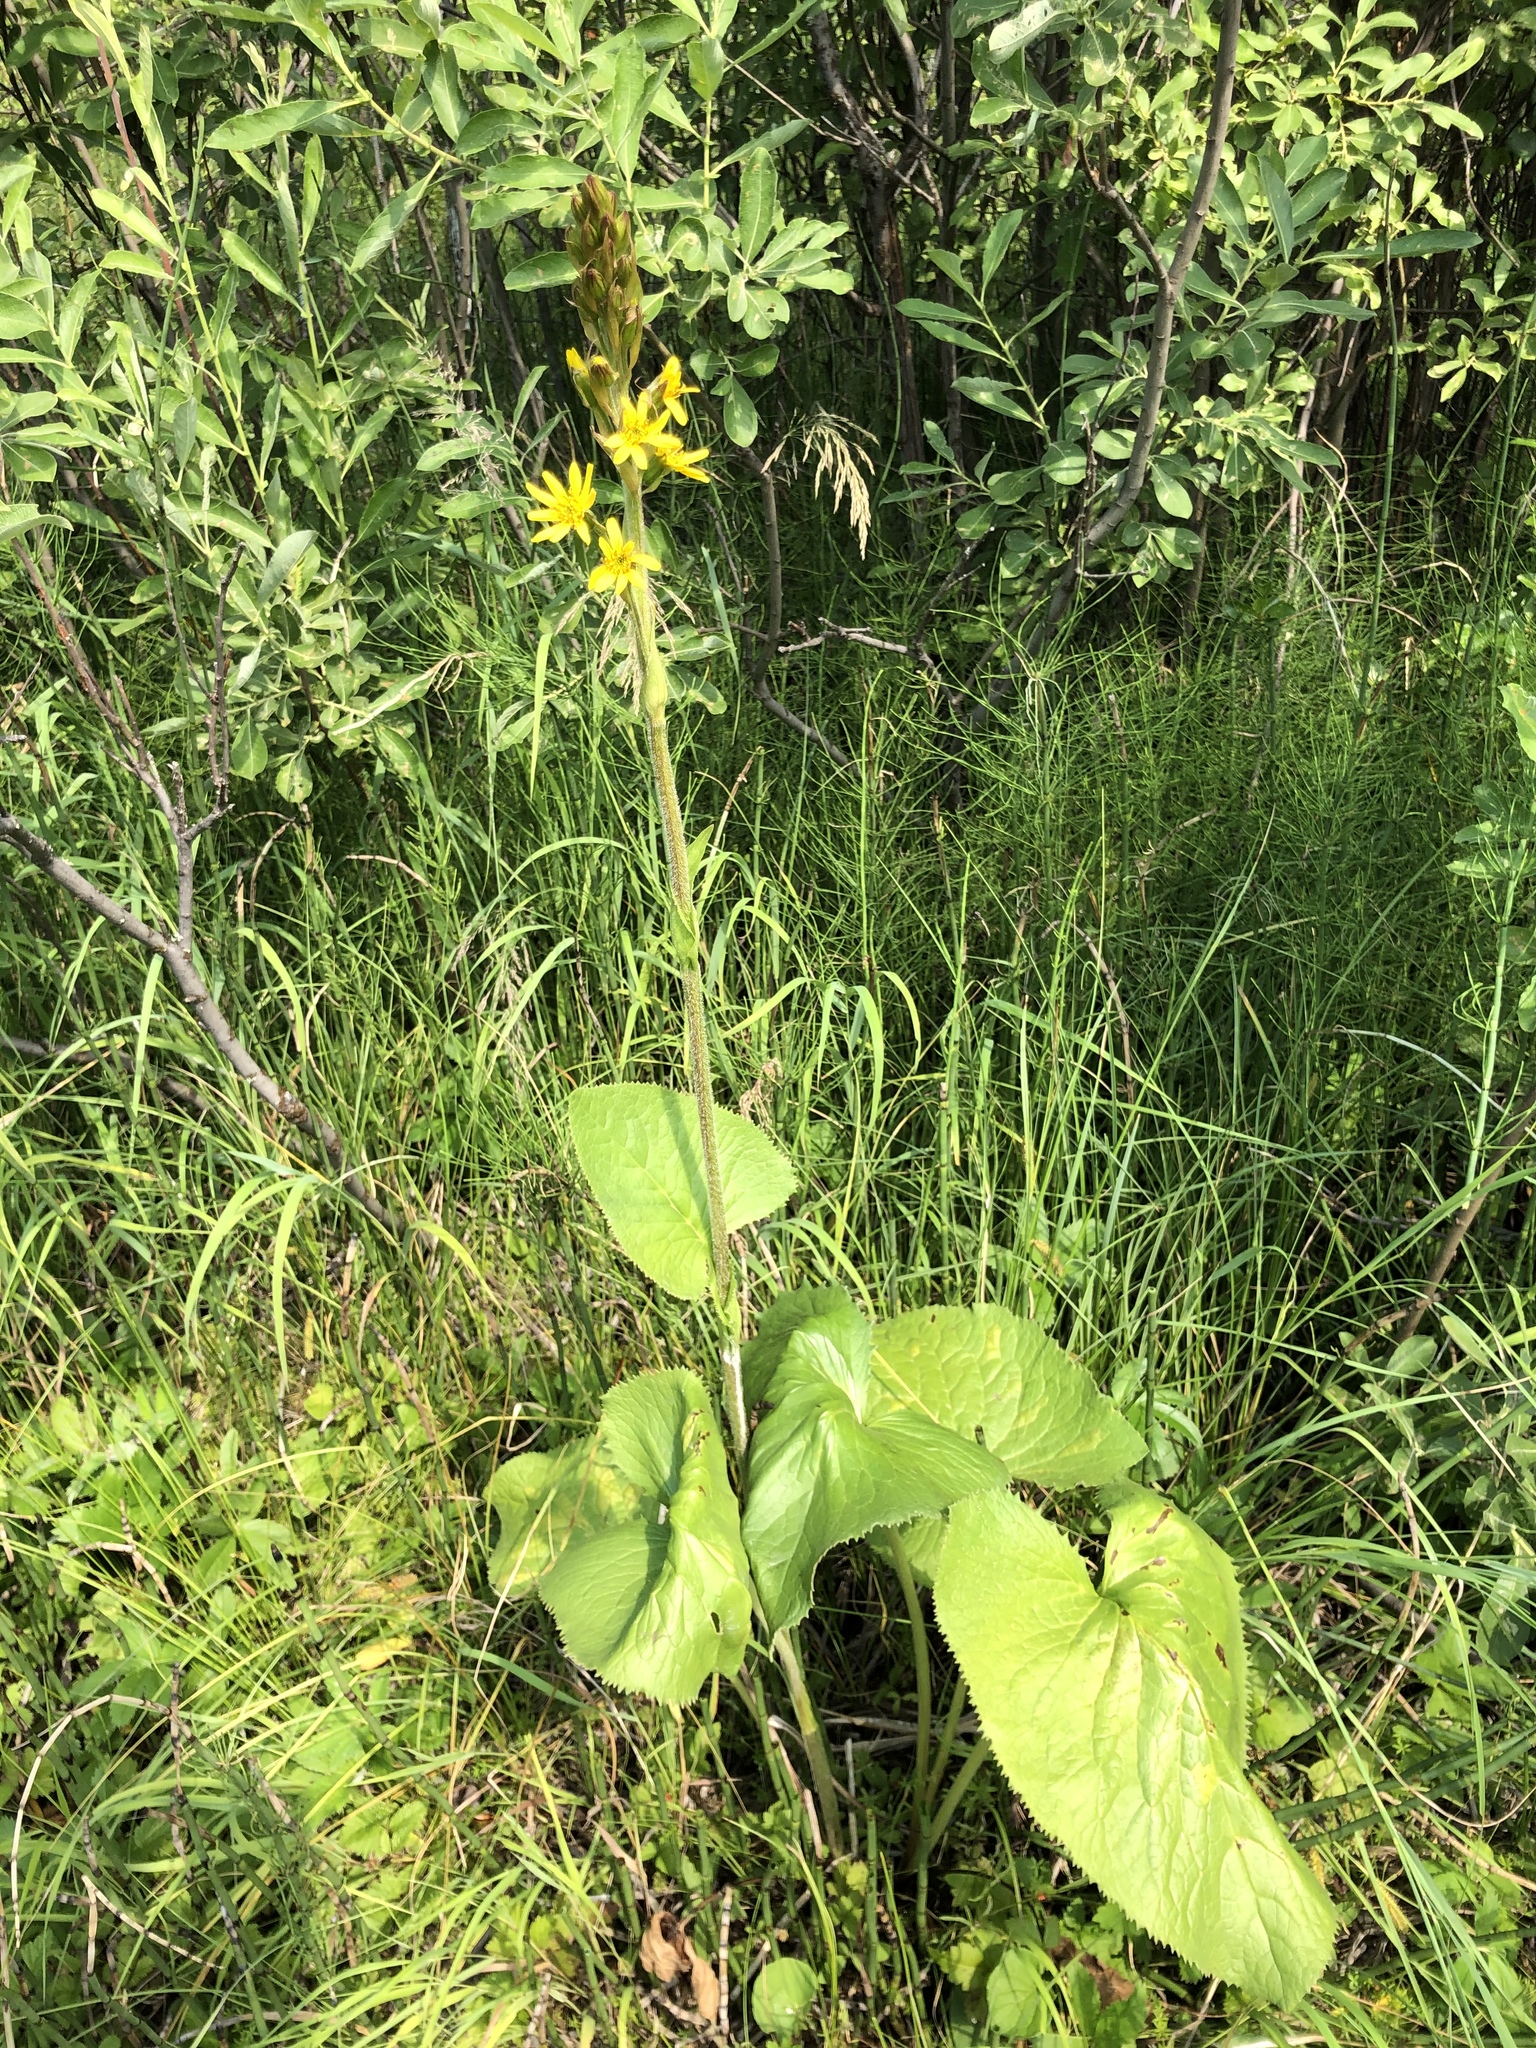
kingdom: Plantae
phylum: Tracheophyta
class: Magnoliopsida
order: Asterales
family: Asteraceae
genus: Ligularia
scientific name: Ligularia sibirica
